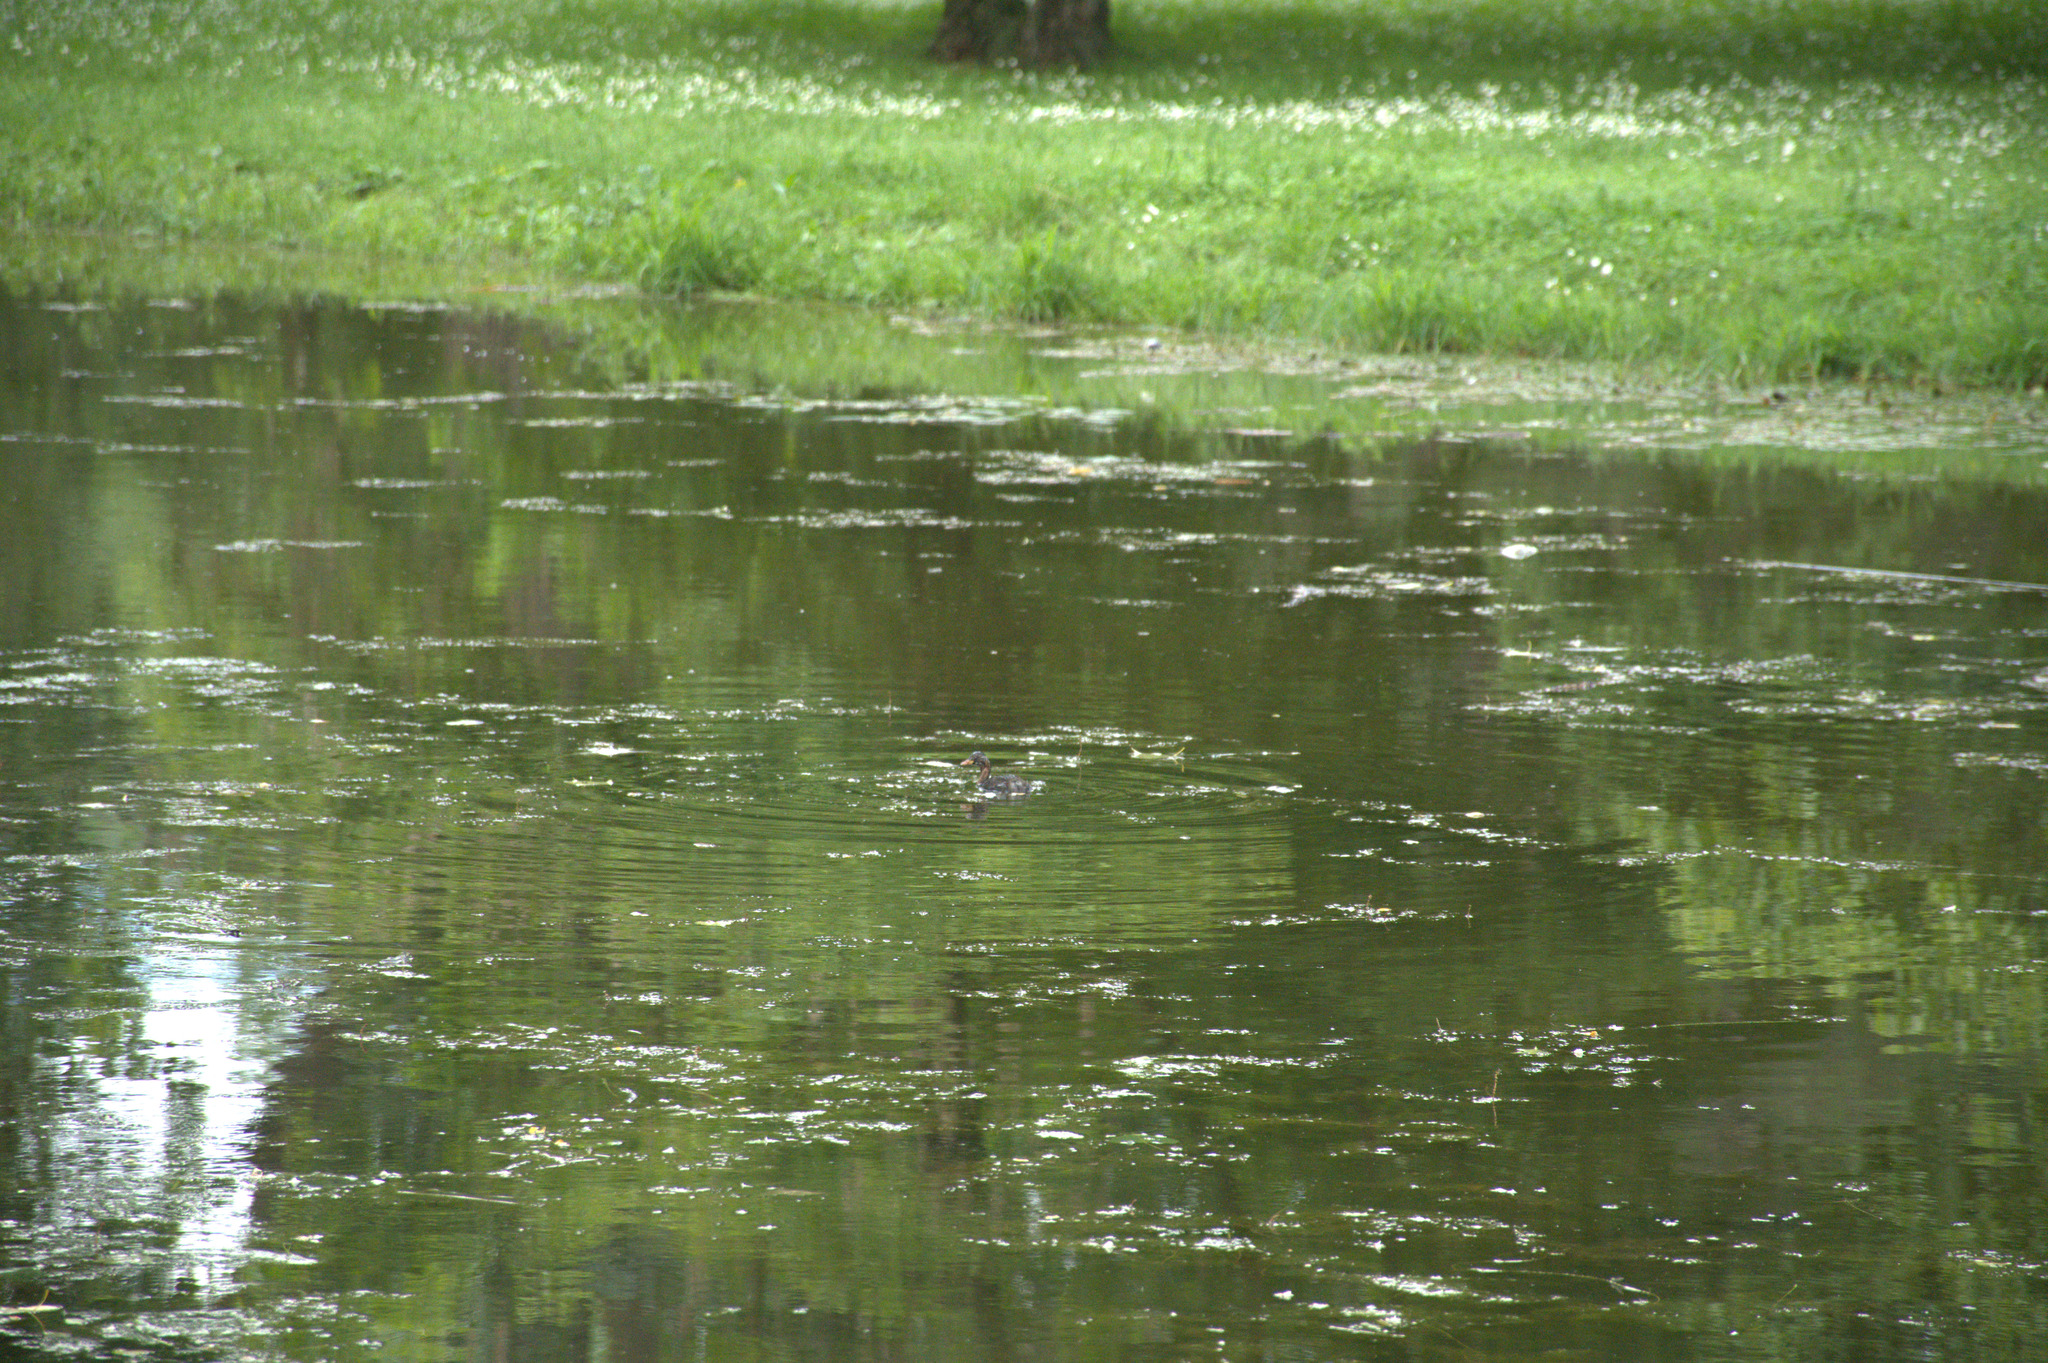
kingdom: Animalia
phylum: Chordata
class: Aves
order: Podicipediformes
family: Podicipedidae
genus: Tachybaptus
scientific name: Tachybaptus ruficollis
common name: Little grebe
